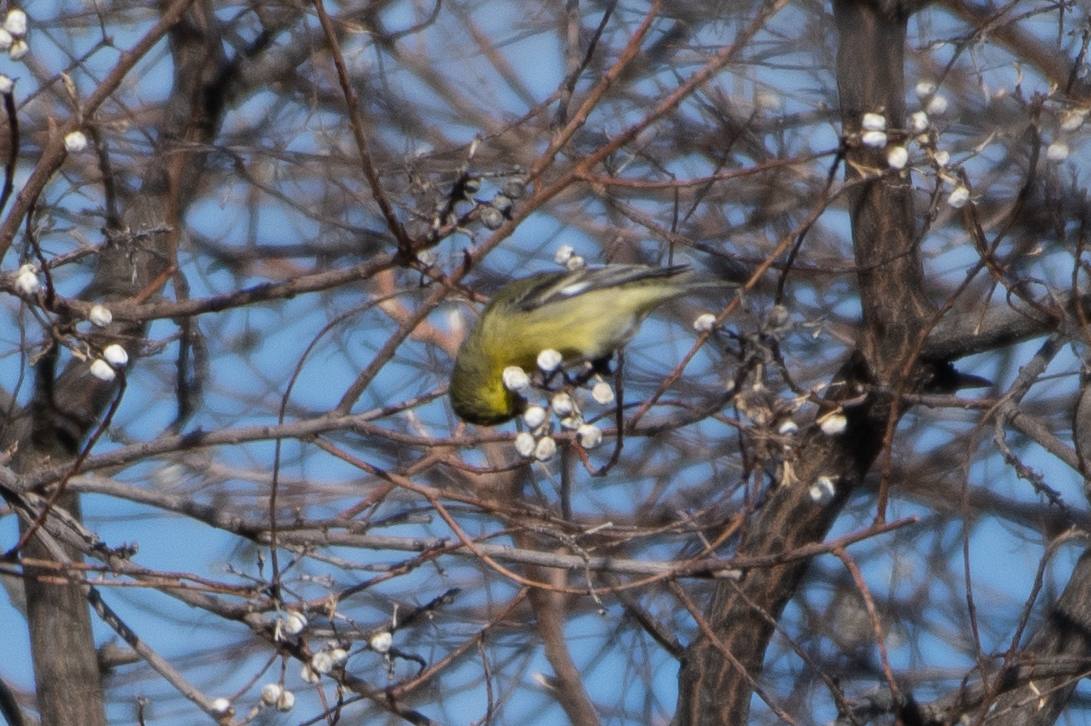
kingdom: Animalia
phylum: Chordata
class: Aves
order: Passeriformes
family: Fringillidae
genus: Spinus
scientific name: Spinus psaltria
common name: Lesser goldfinch
